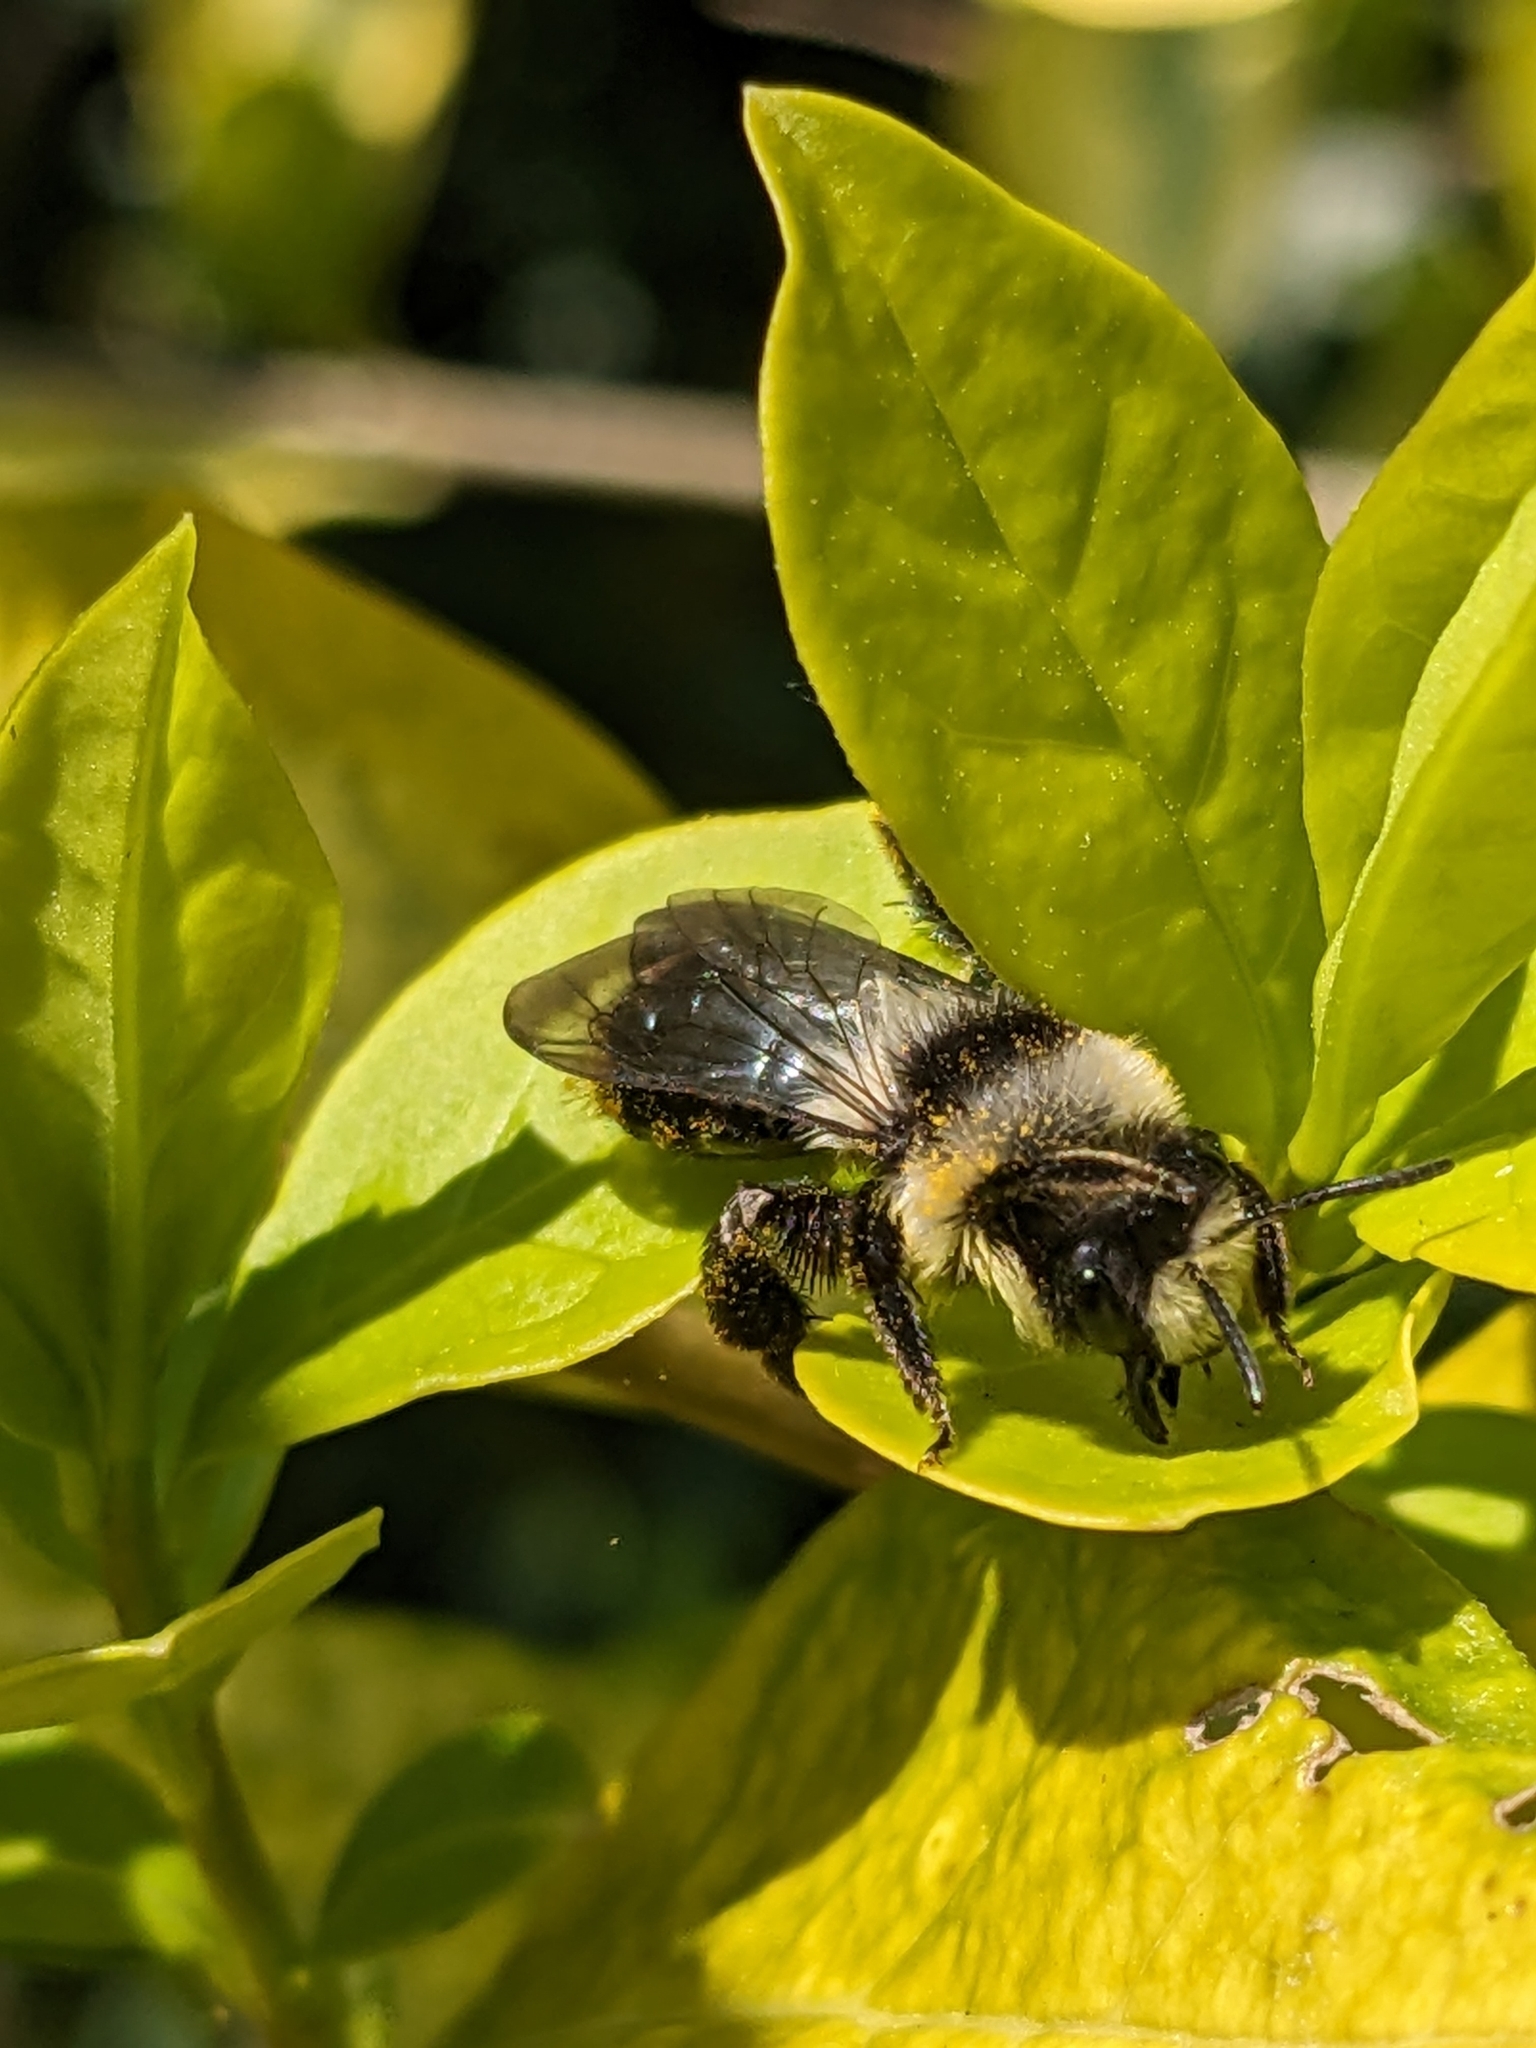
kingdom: Animalia
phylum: Arthropoda
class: Insecta
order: Hymenoptera
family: Andrenidae
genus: Andrena
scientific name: Andrena cineraria
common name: Ashy mining bee
